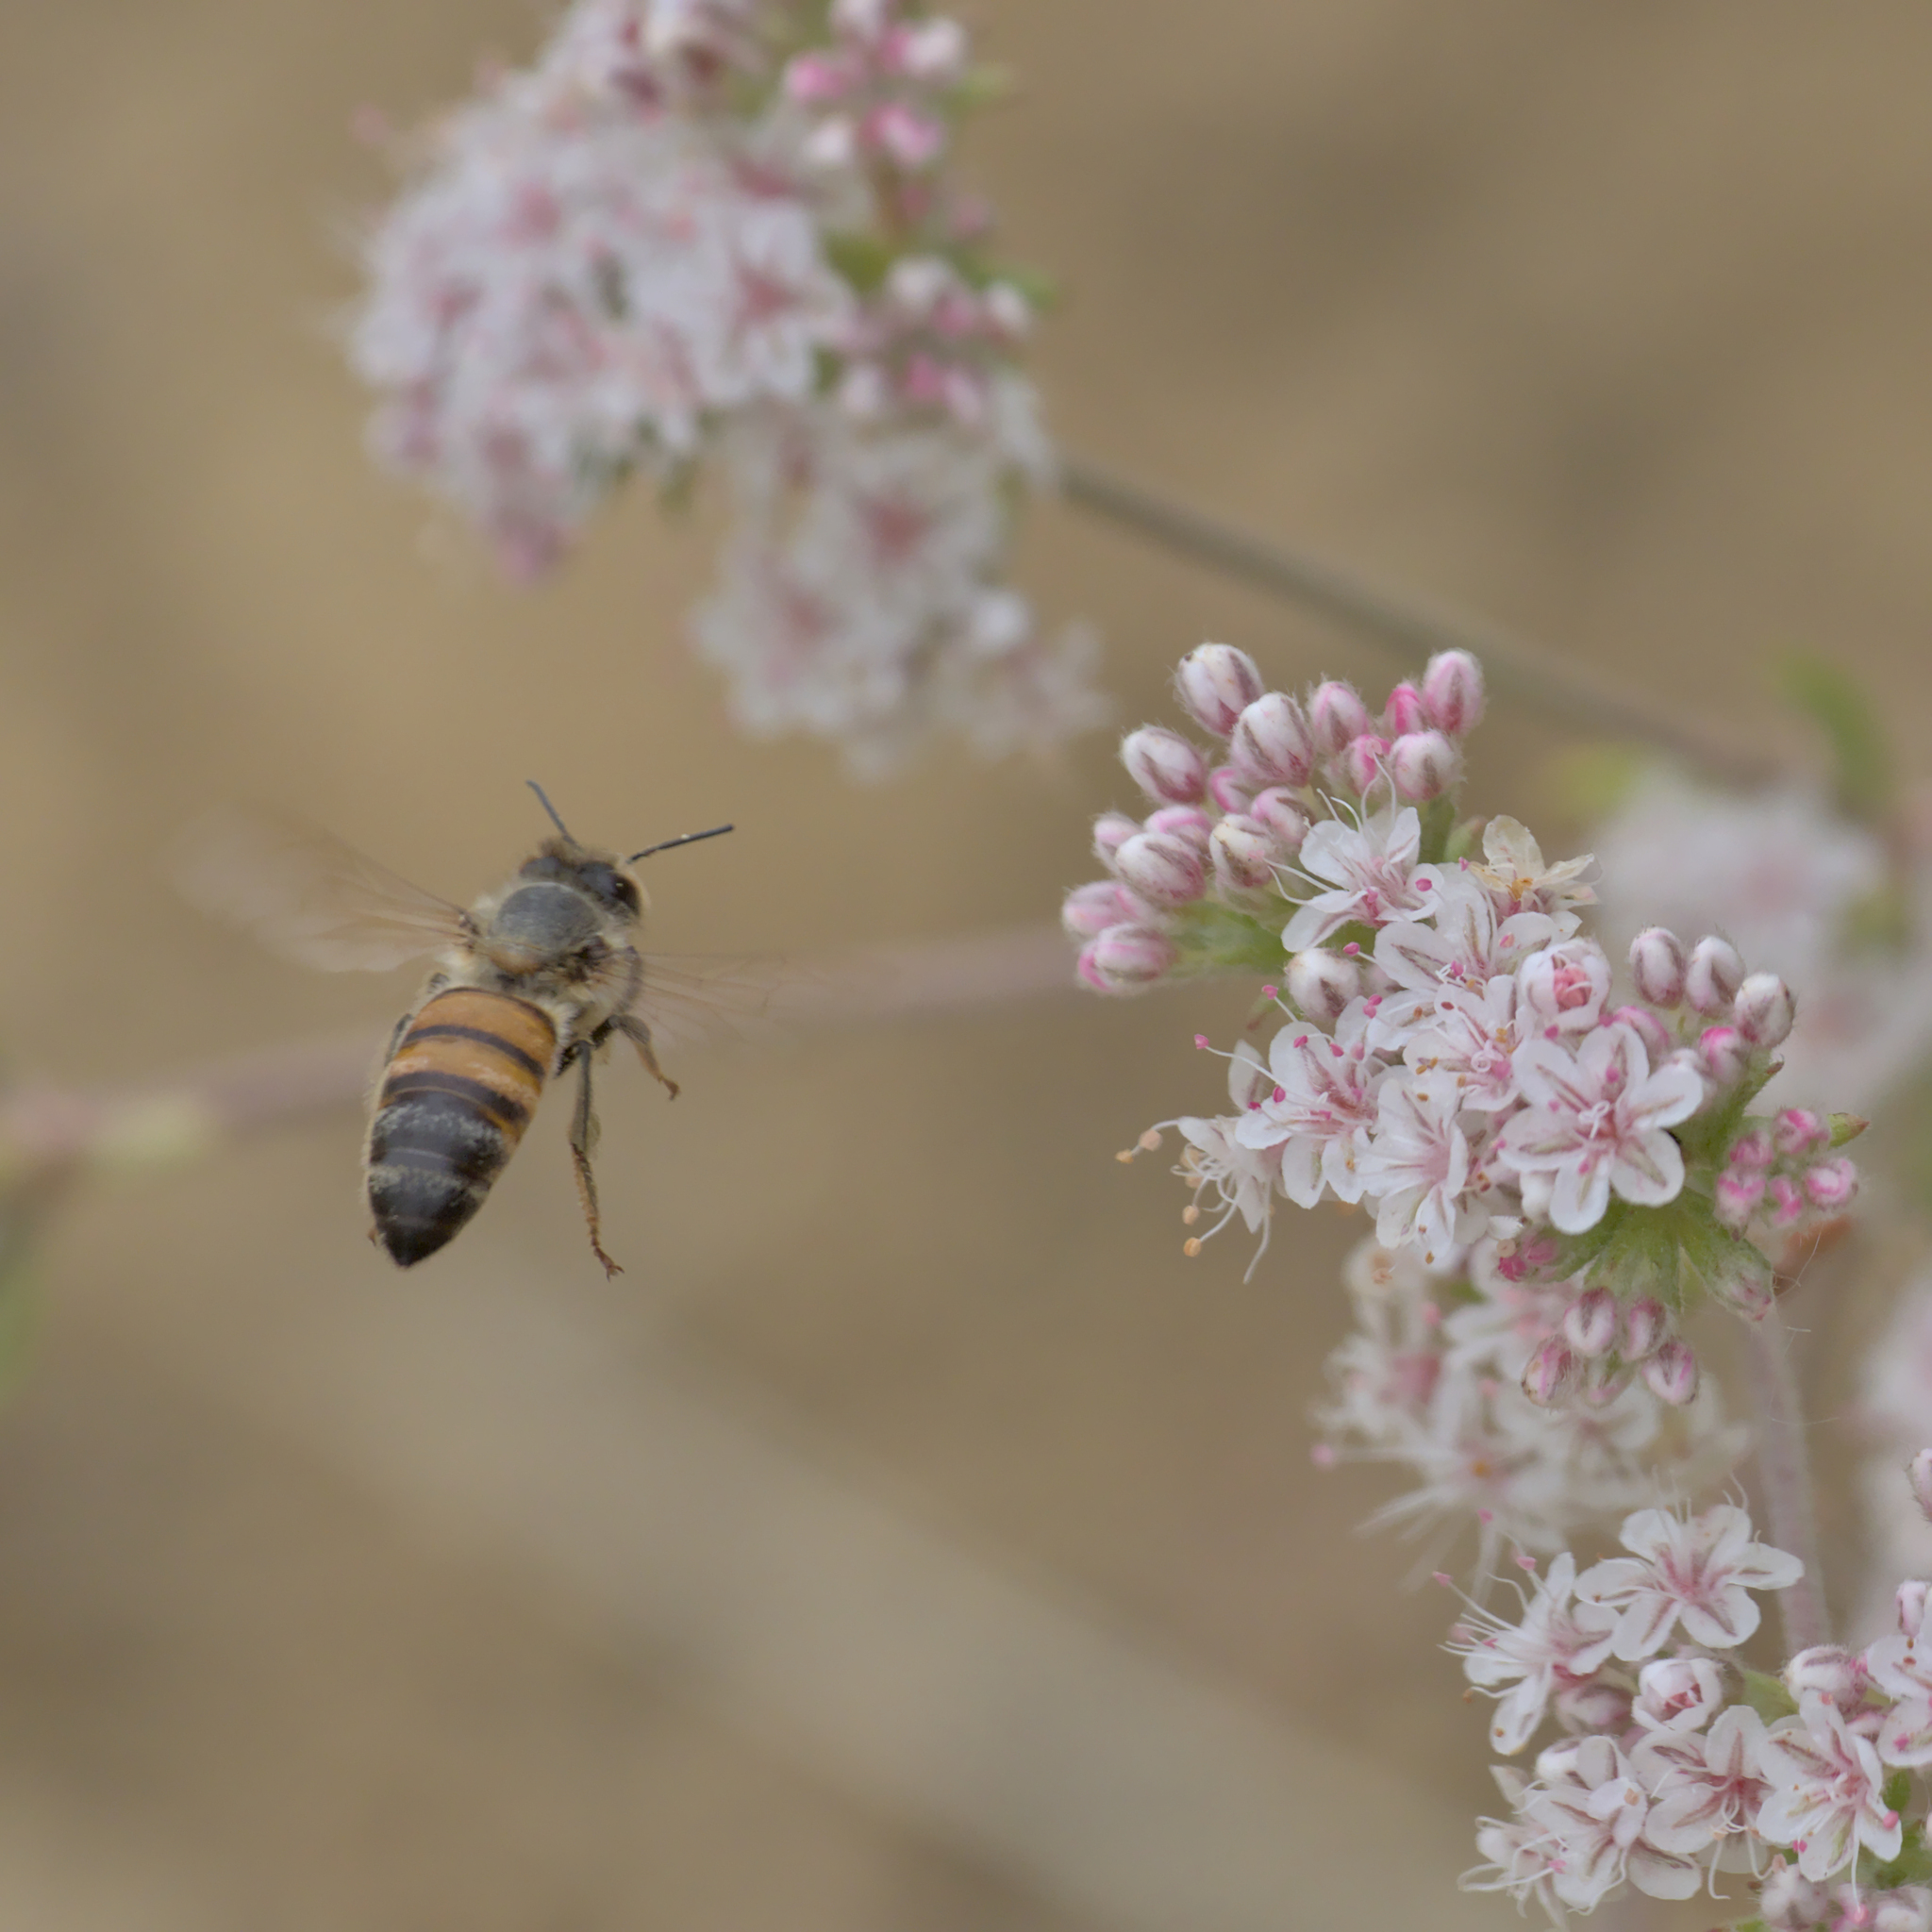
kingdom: Animalia
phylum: Arthropoda
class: Insecta
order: Hymenoptera
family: Apidae
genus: Apis
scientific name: Apis mellifera
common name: Honey bee
